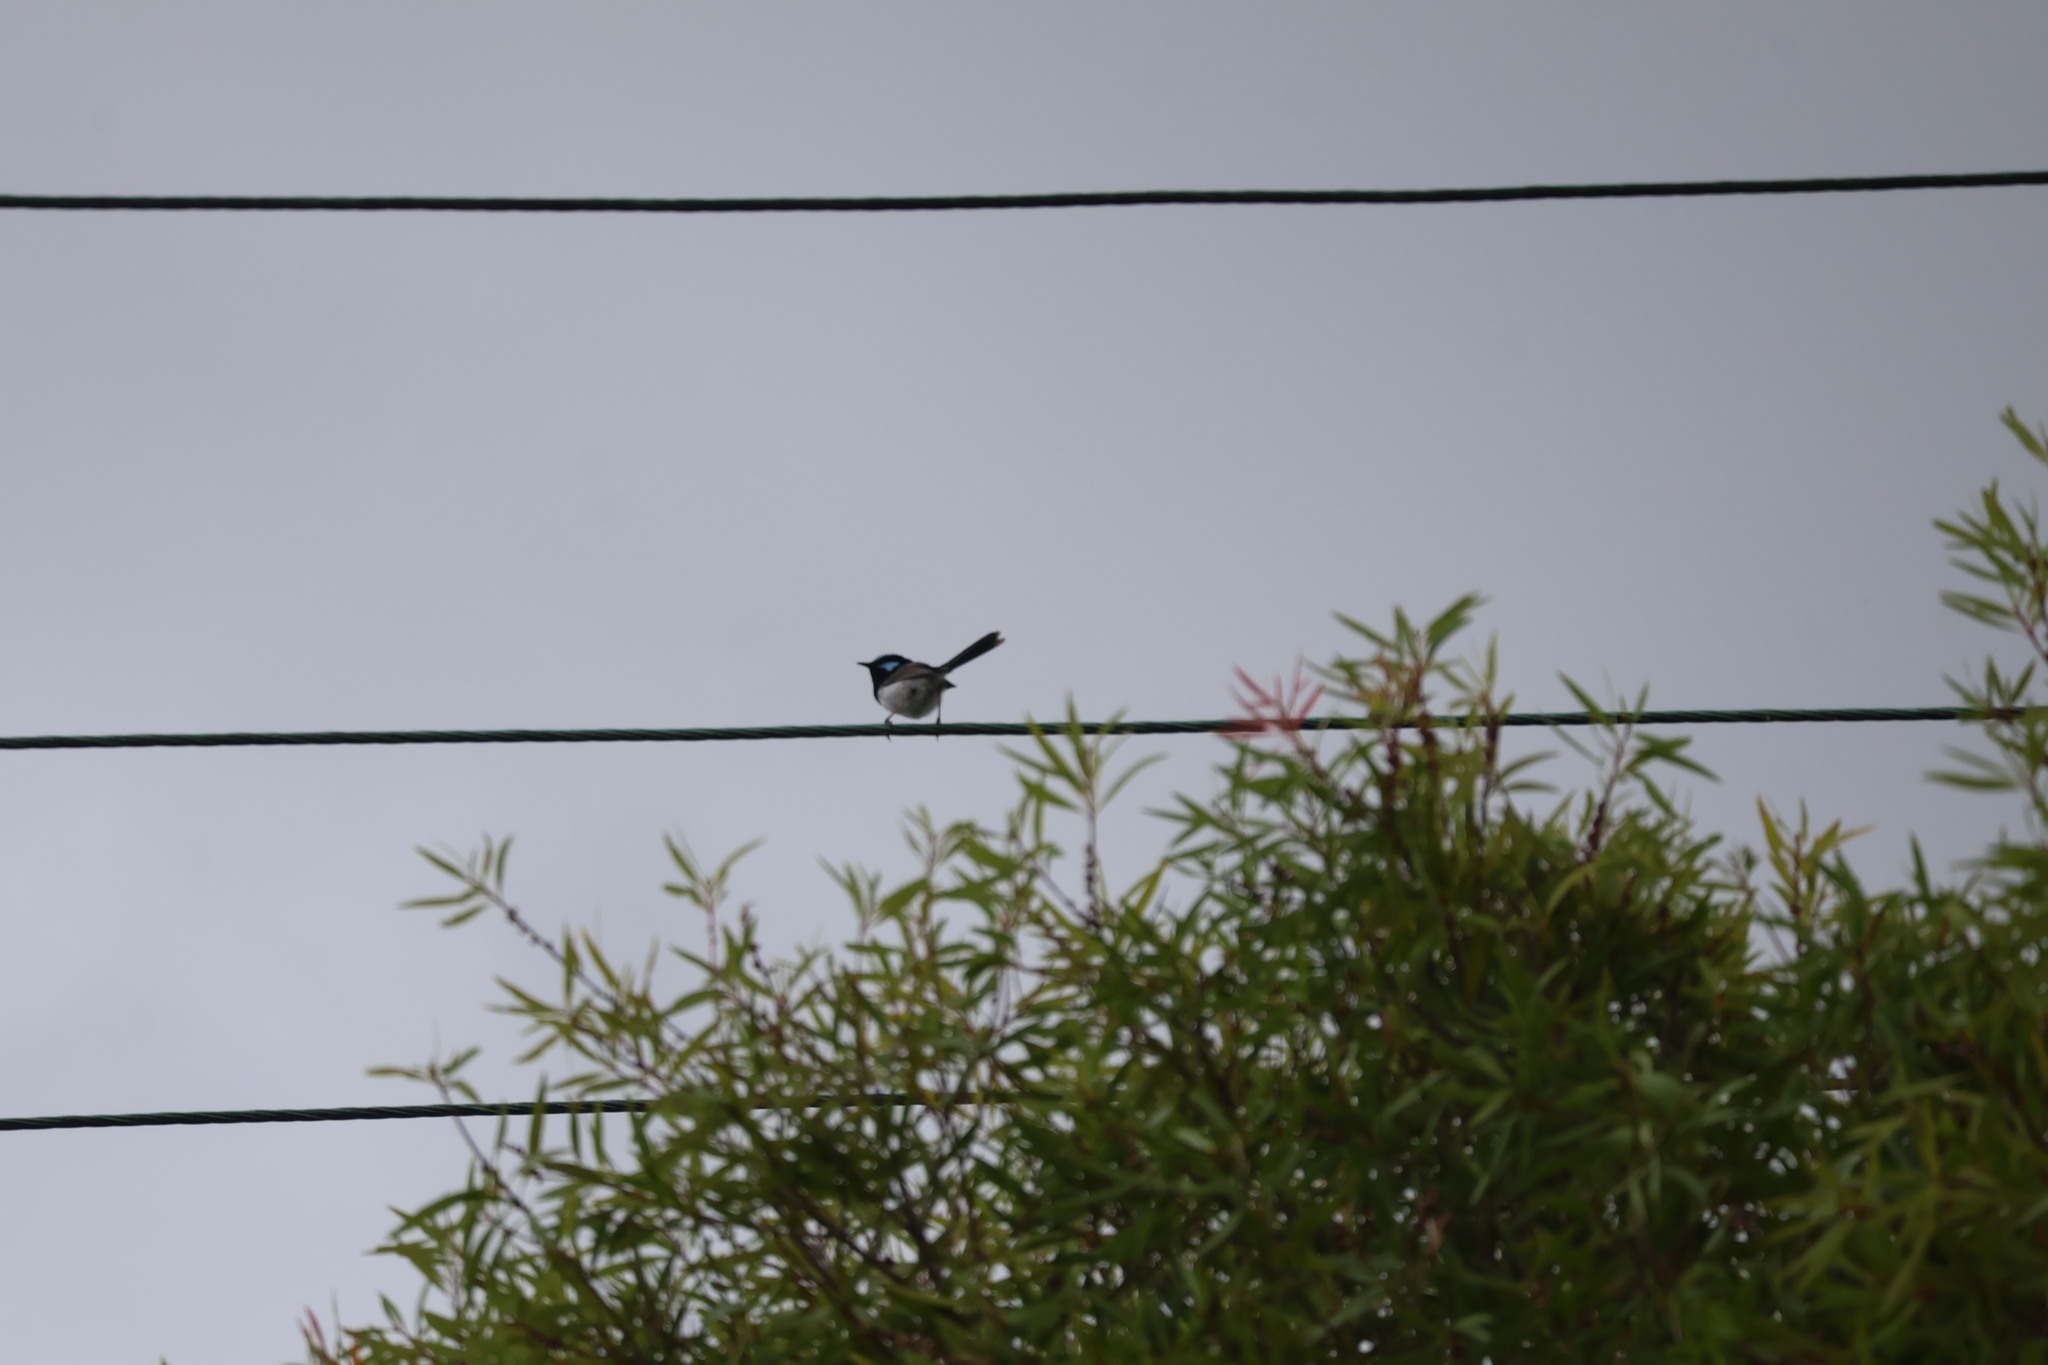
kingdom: Animalia
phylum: Chordata
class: Aves
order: Passeriformes
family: Maluridae
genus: Malurus
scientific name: Malurus cyaneus
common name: Superb fairywren
